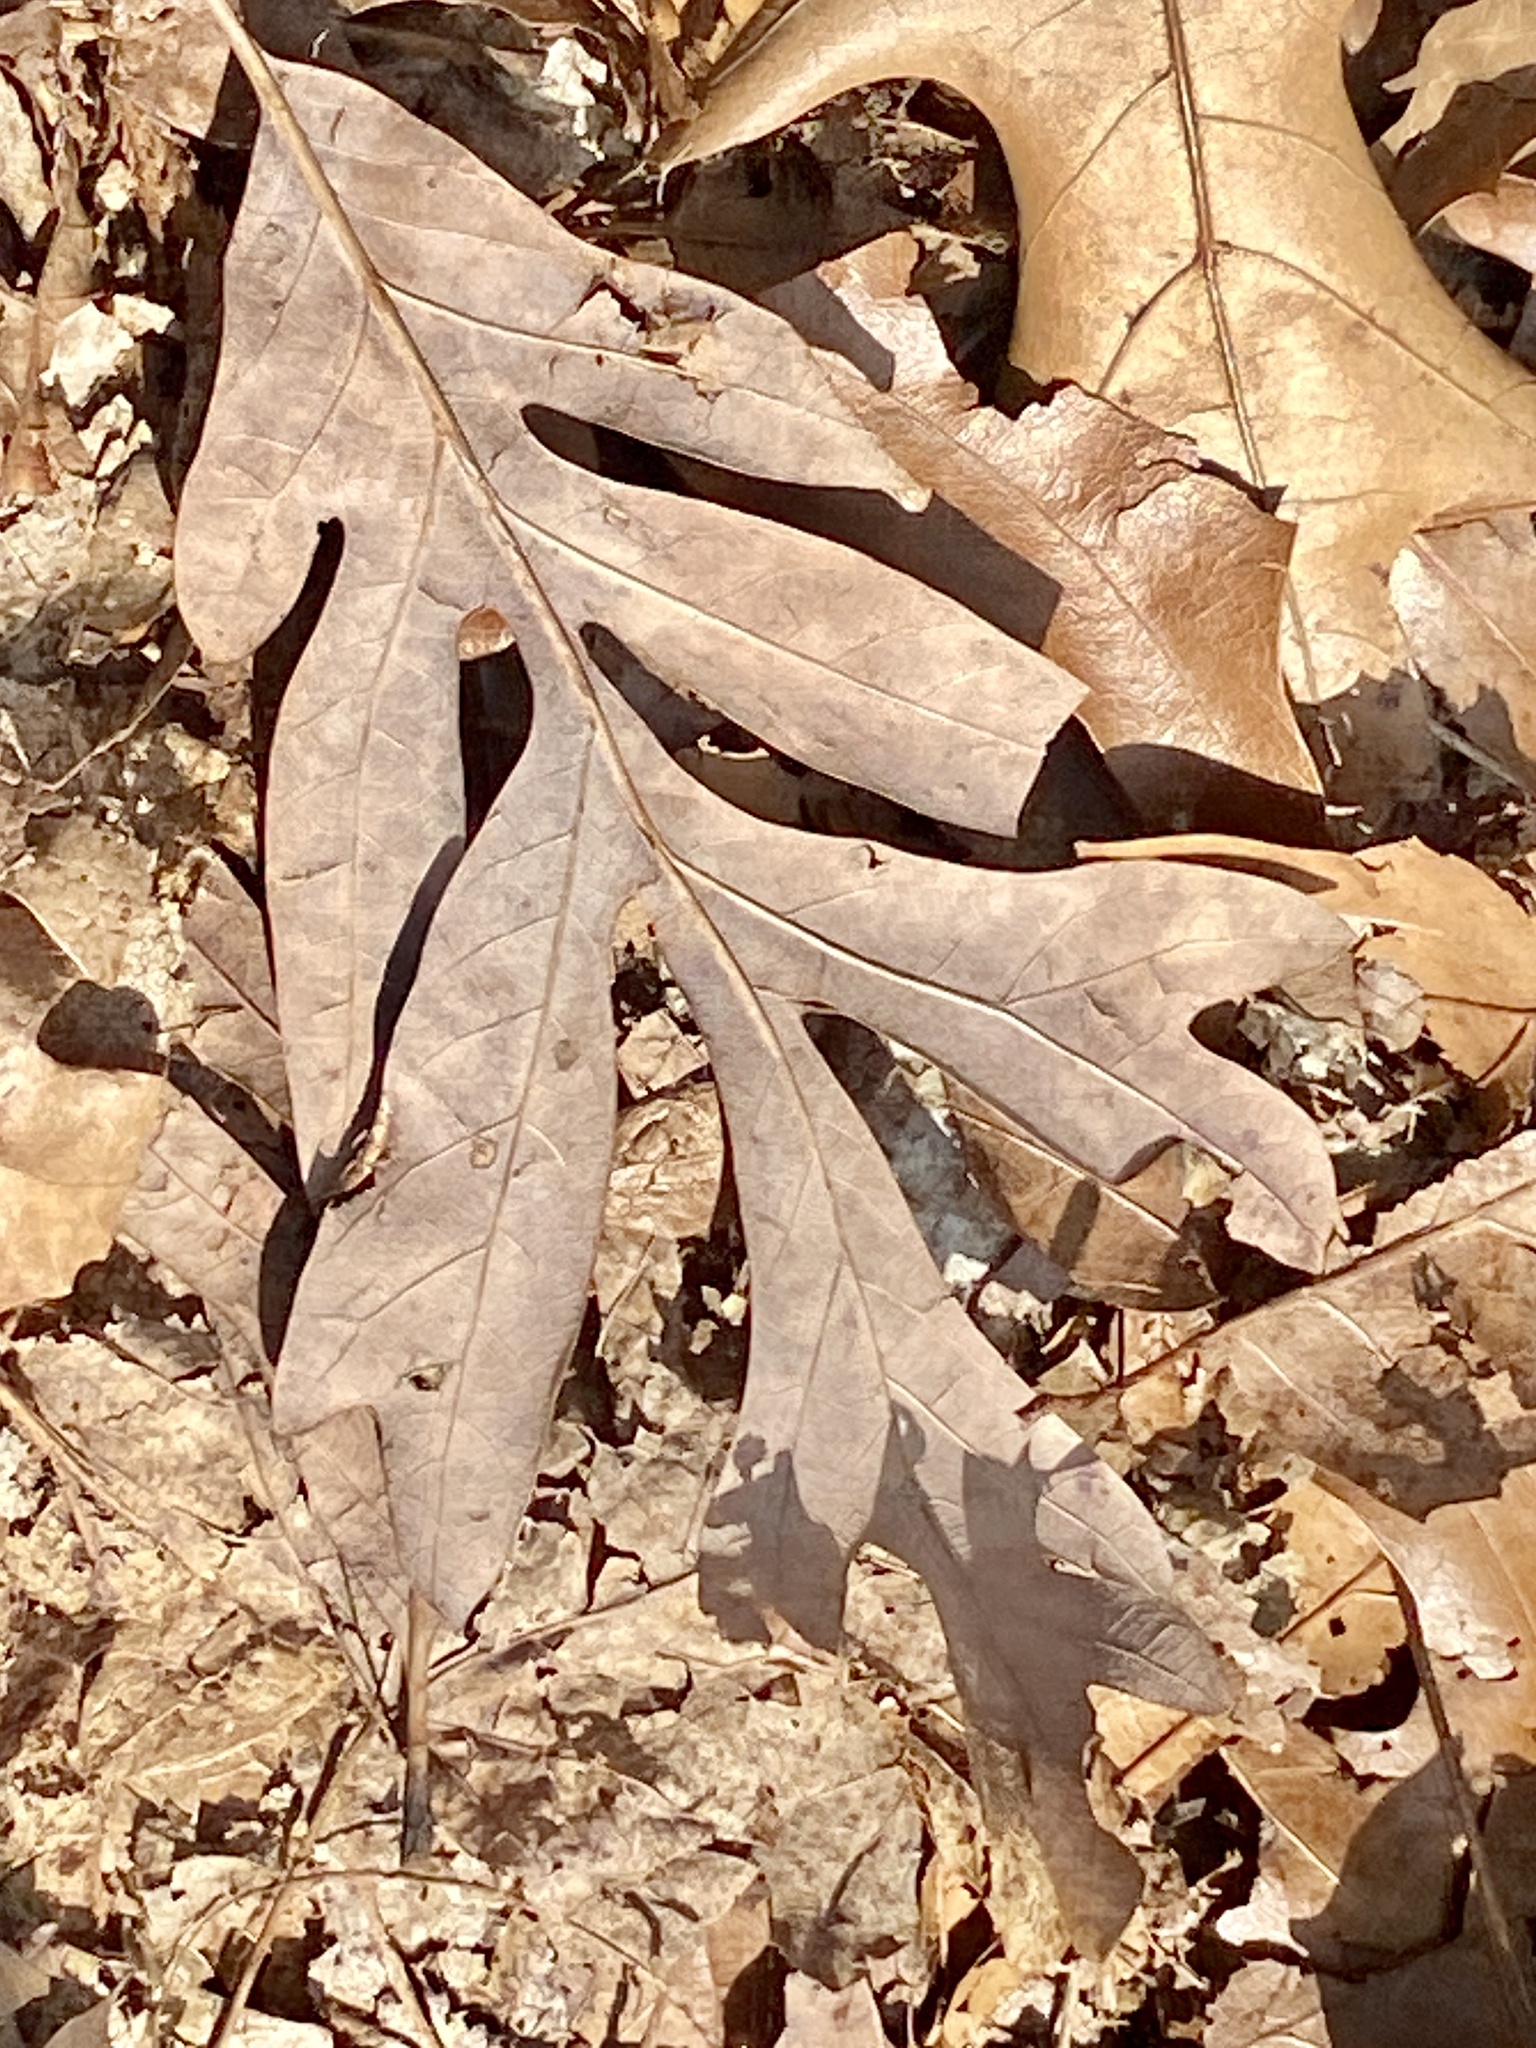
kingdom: Plantae
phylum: Tracheophyta
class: Magnoliopsida
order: Fagales
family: Fagaceae
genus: Quercus
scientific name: Quercus alba
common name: White oak
